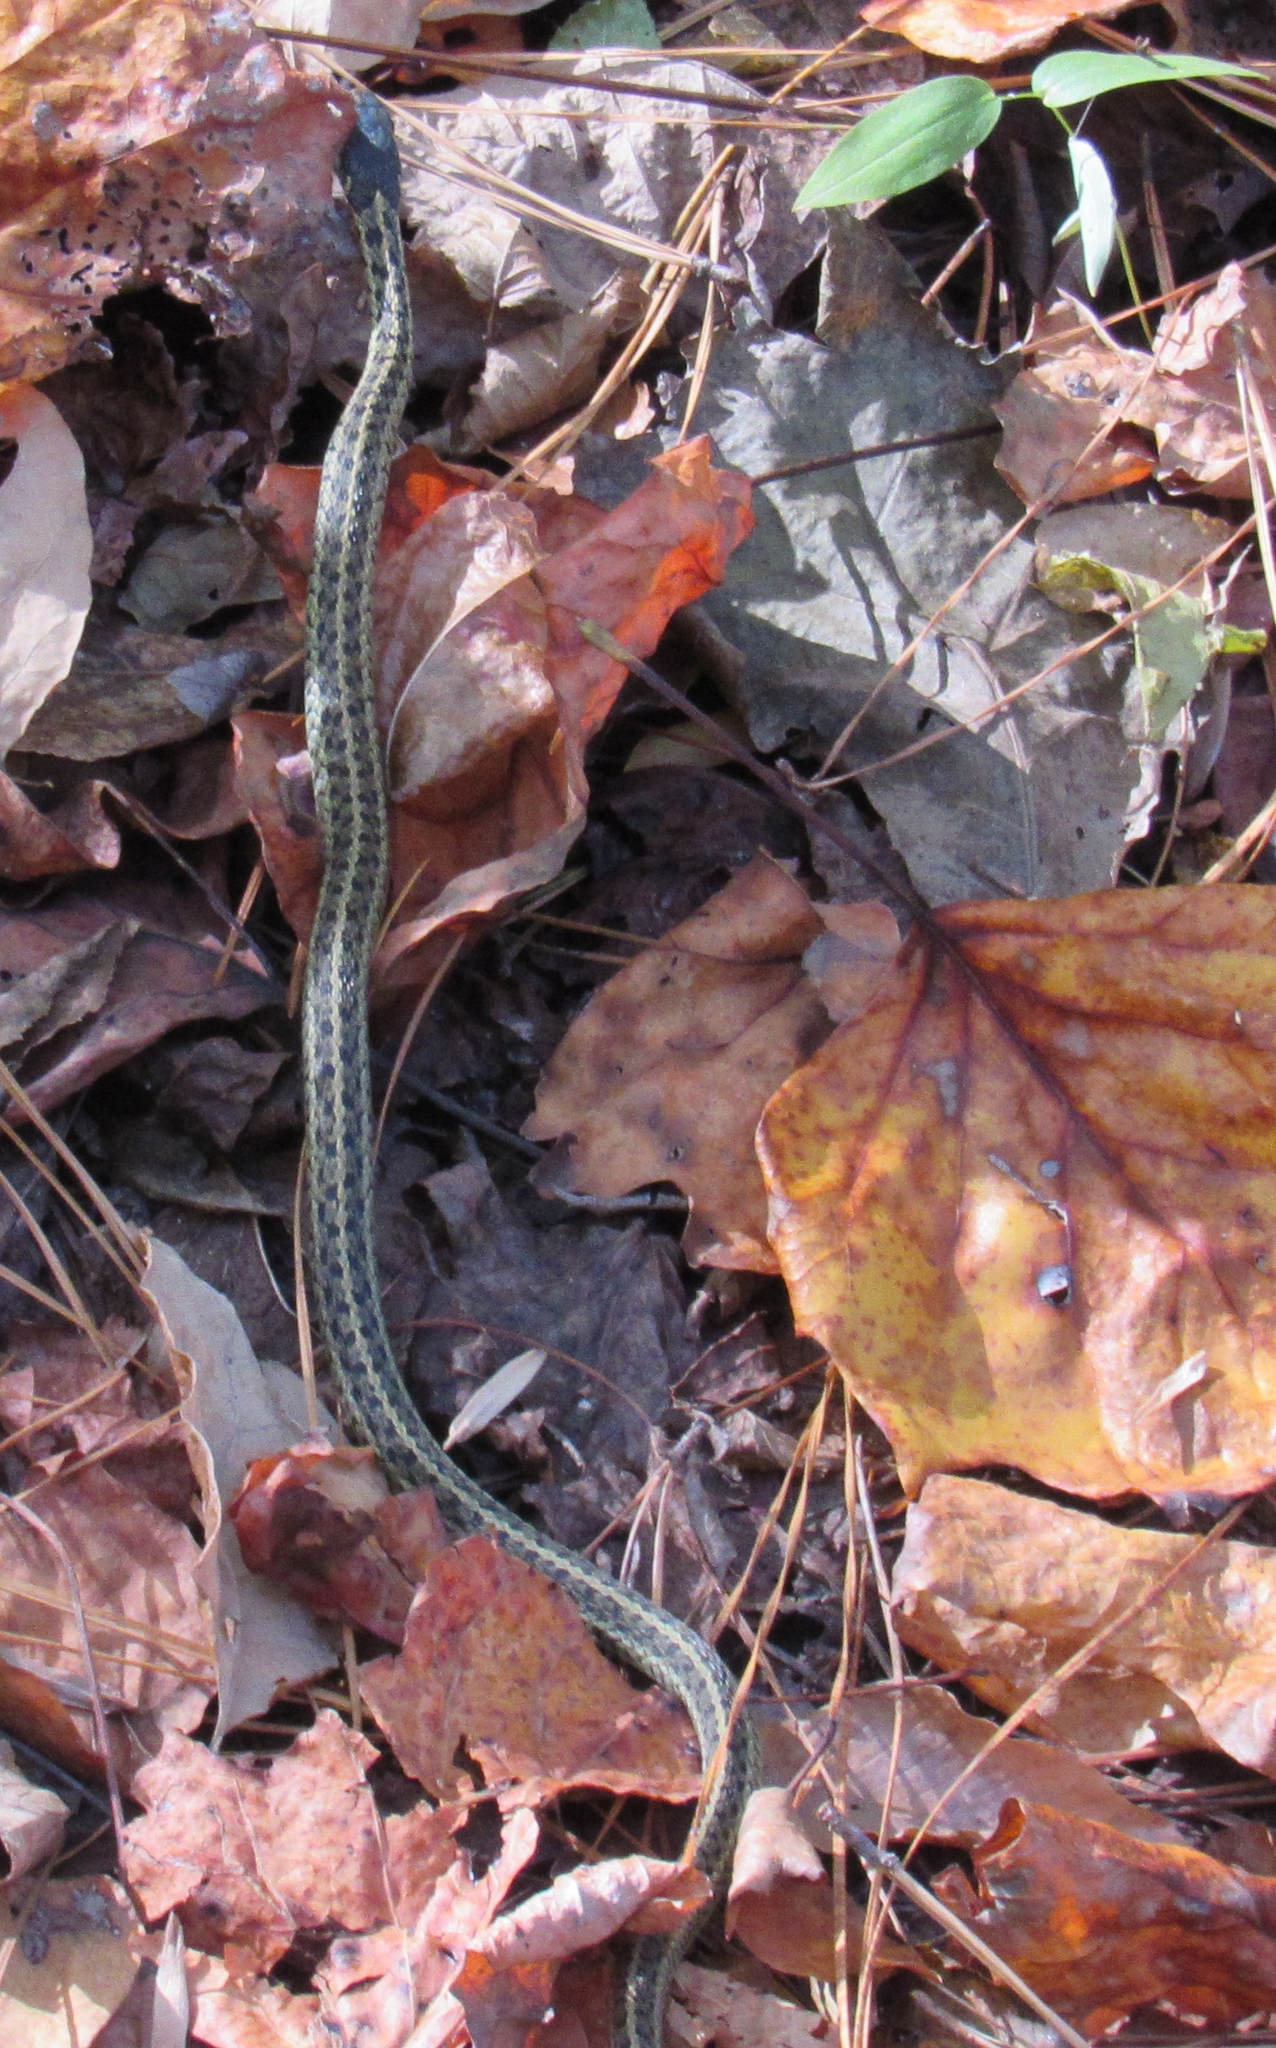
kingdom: Animalia
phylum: Chordata
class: Squamata
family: Colubridae
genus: Thamnophis
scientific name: Thamnophis sirtalis
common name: Common garter snake
